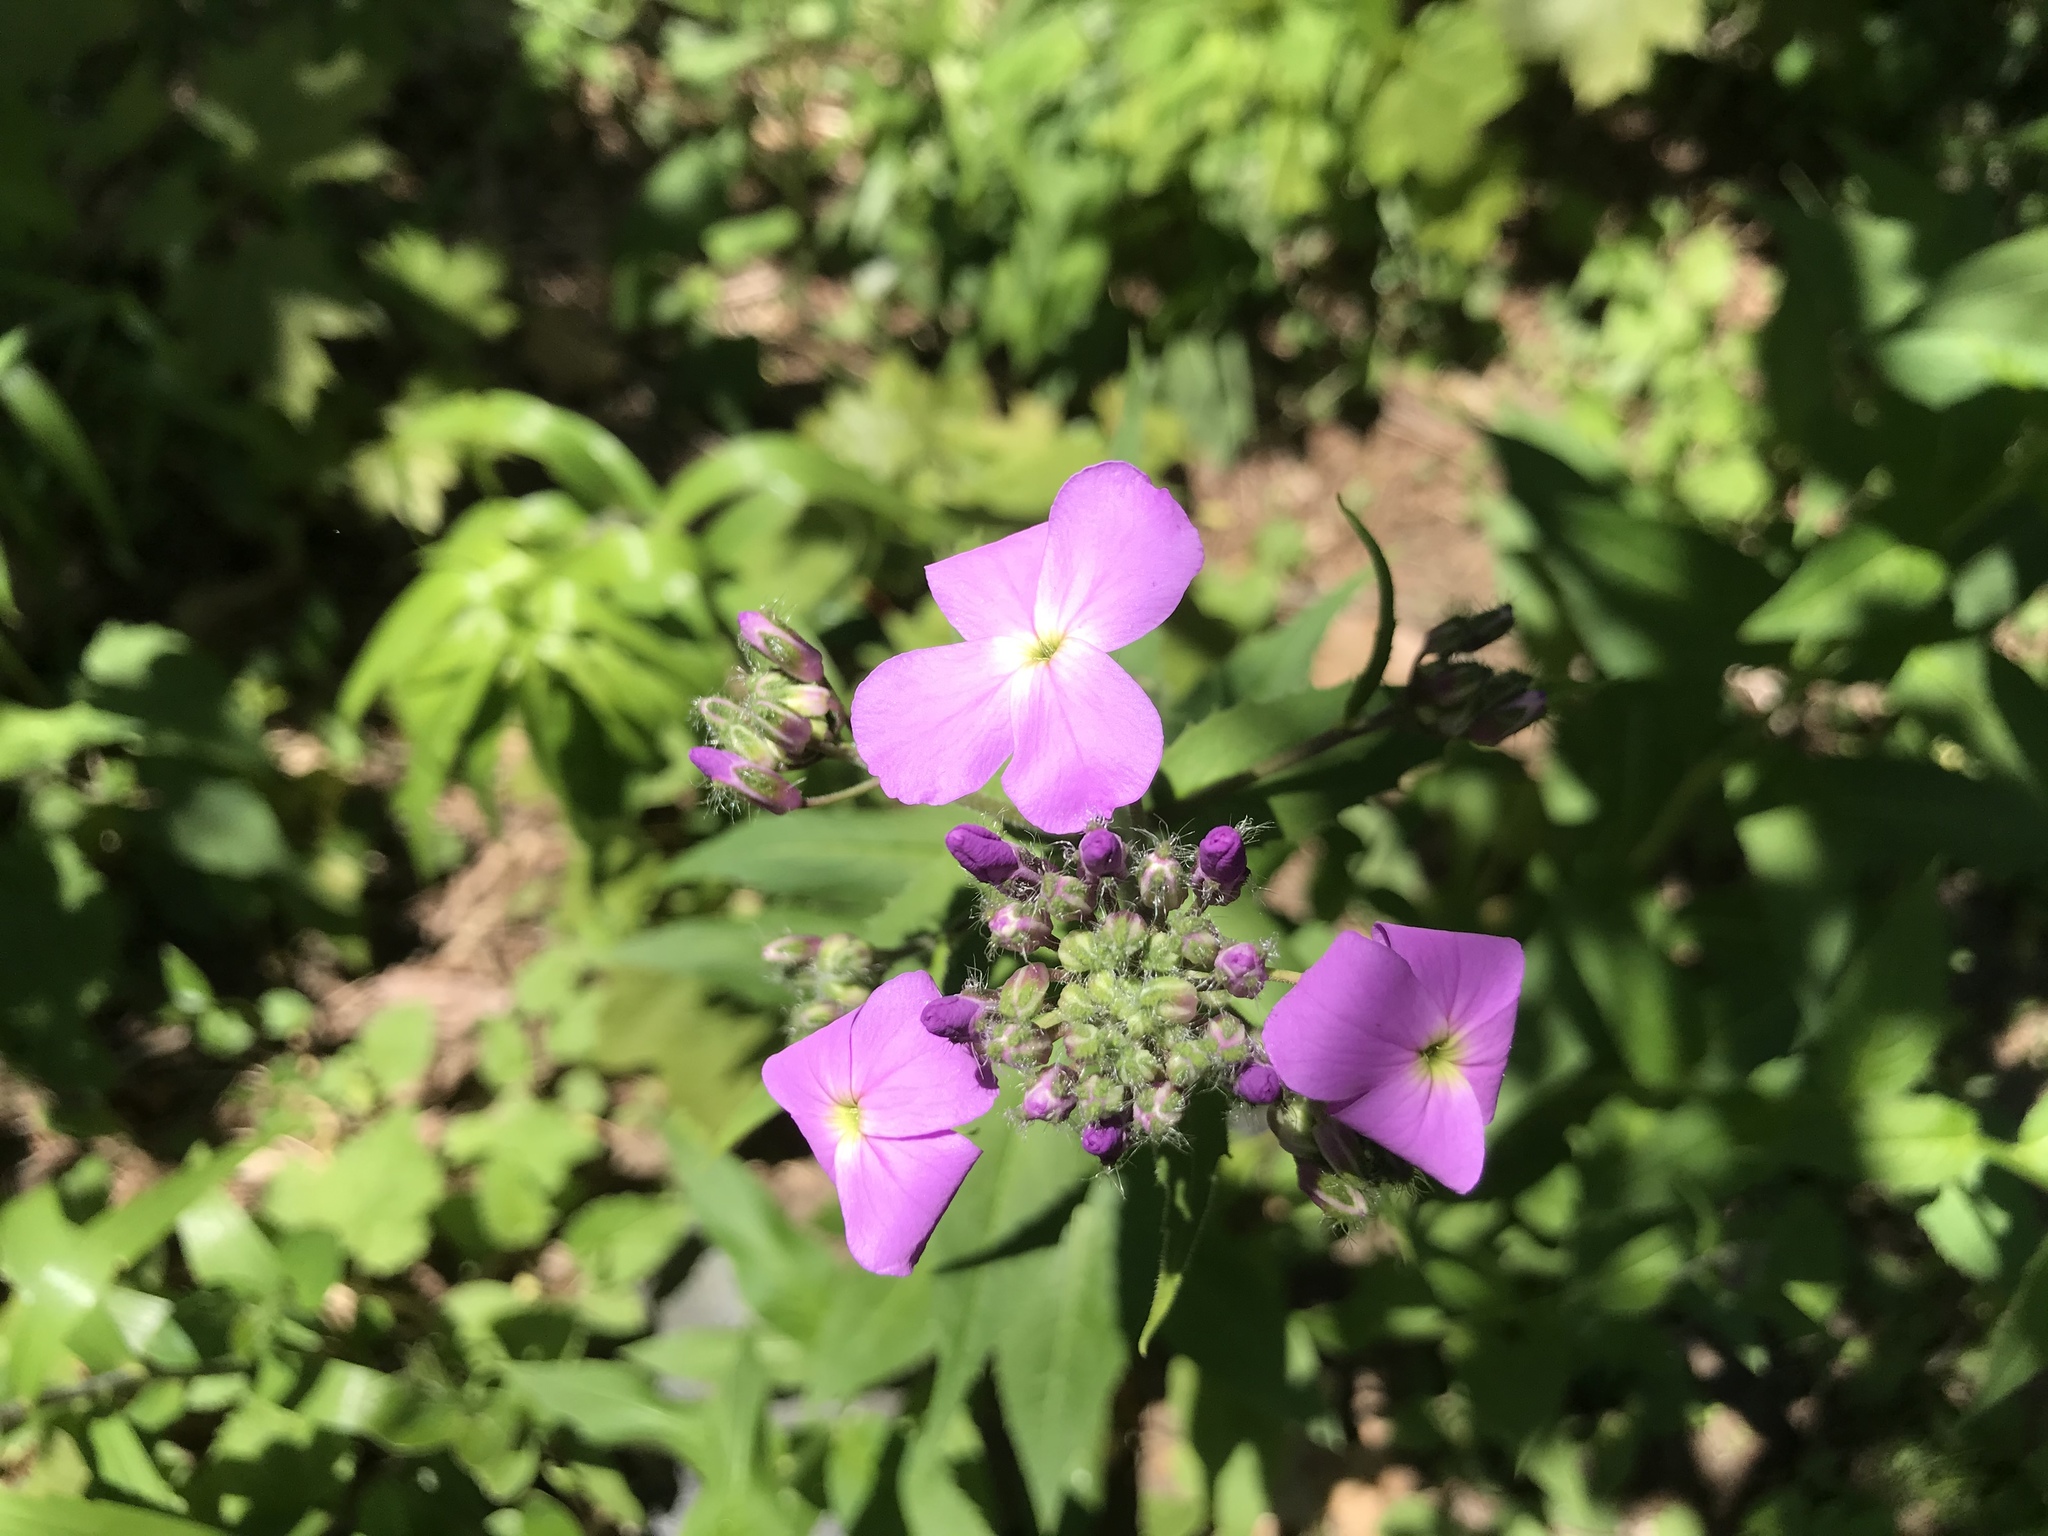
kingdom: Plantae
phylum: Tracheophyta
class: Magnoliopsida
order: Brassicales
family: Brassicaceae
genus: Hesperis
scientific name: Hesperis matronalis
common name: Dame's-violet
